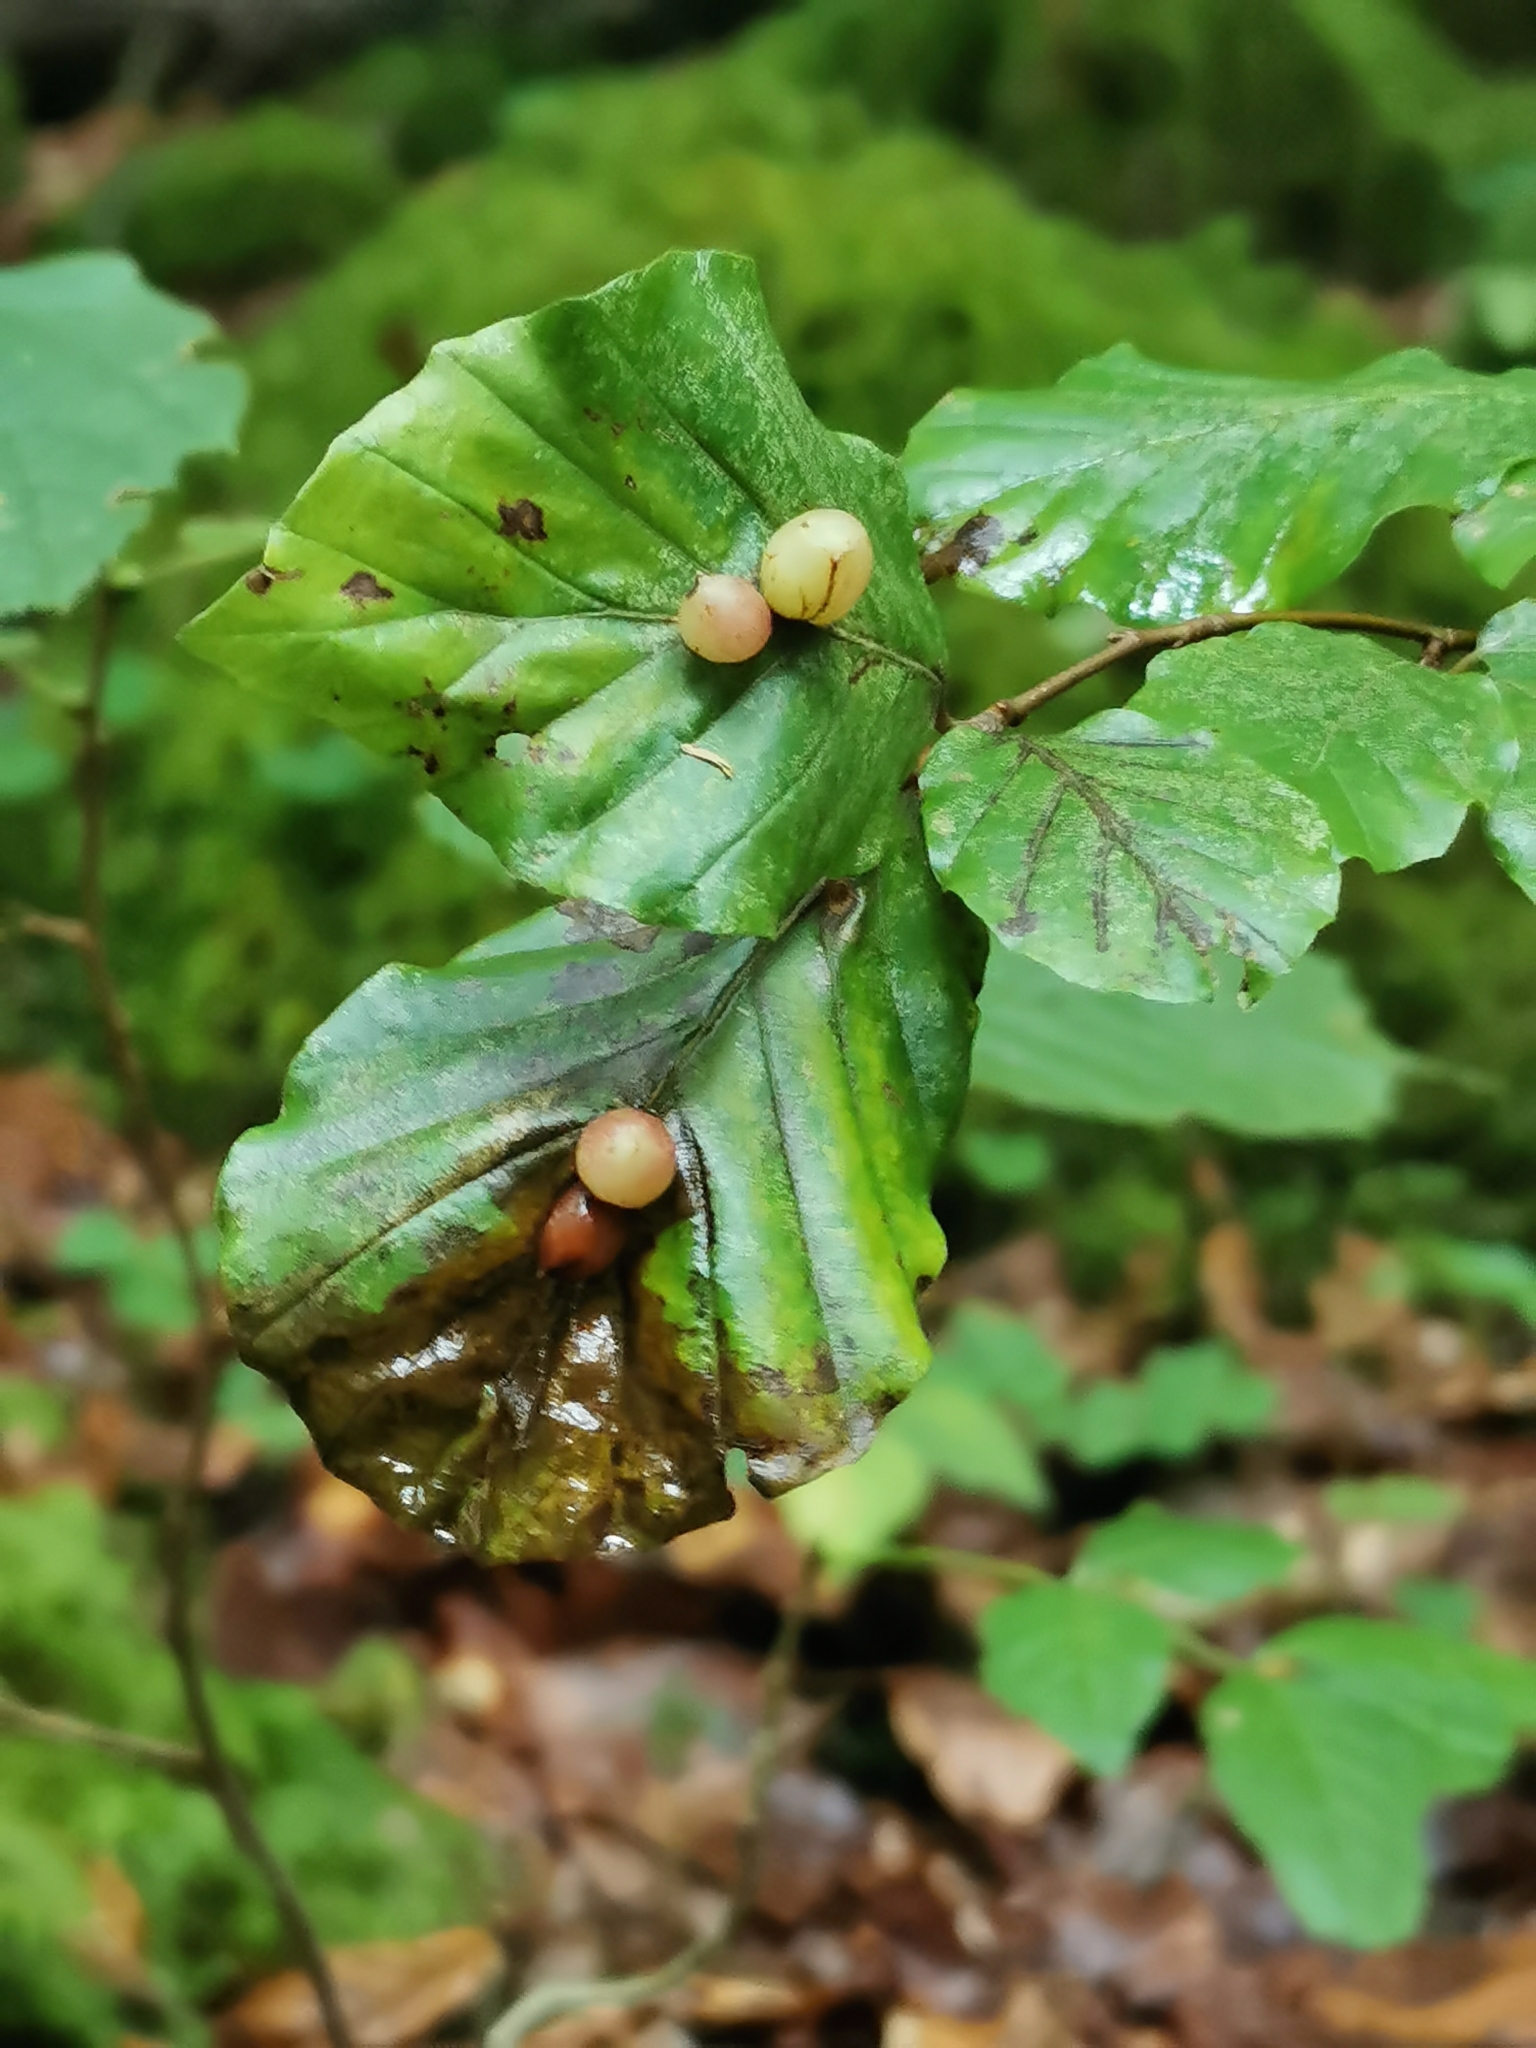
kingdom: Animalia
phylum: Arthropoda
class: Insecta
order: Diptera
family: Cecidomyiidae
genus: Mikiola
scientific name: Mikiola fagi
